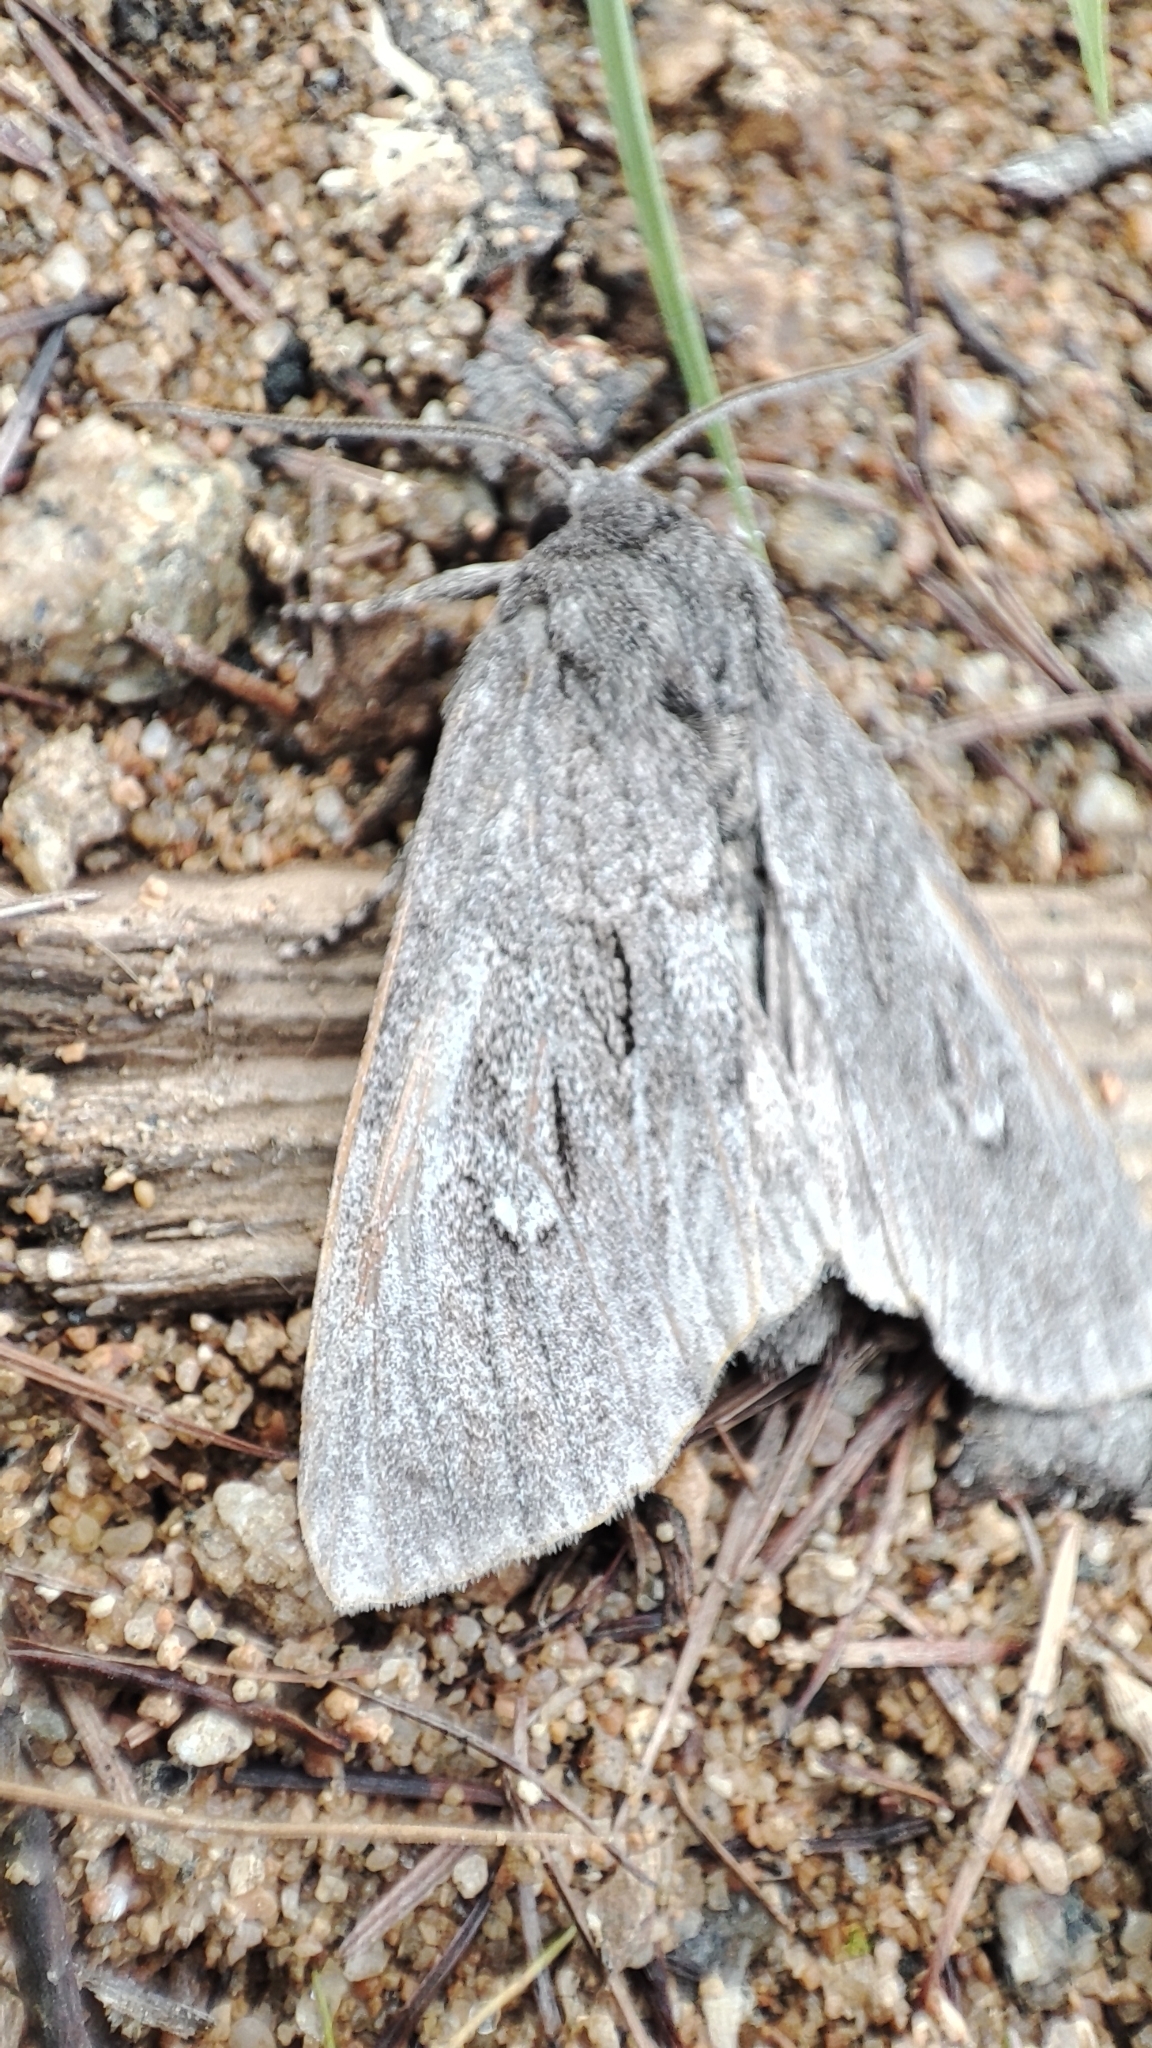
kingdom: Animalia
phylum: Arthropoda
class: Insecta
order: Lepidoptera
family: Noctuidae
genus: Polia
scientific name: Polia vespertilio
